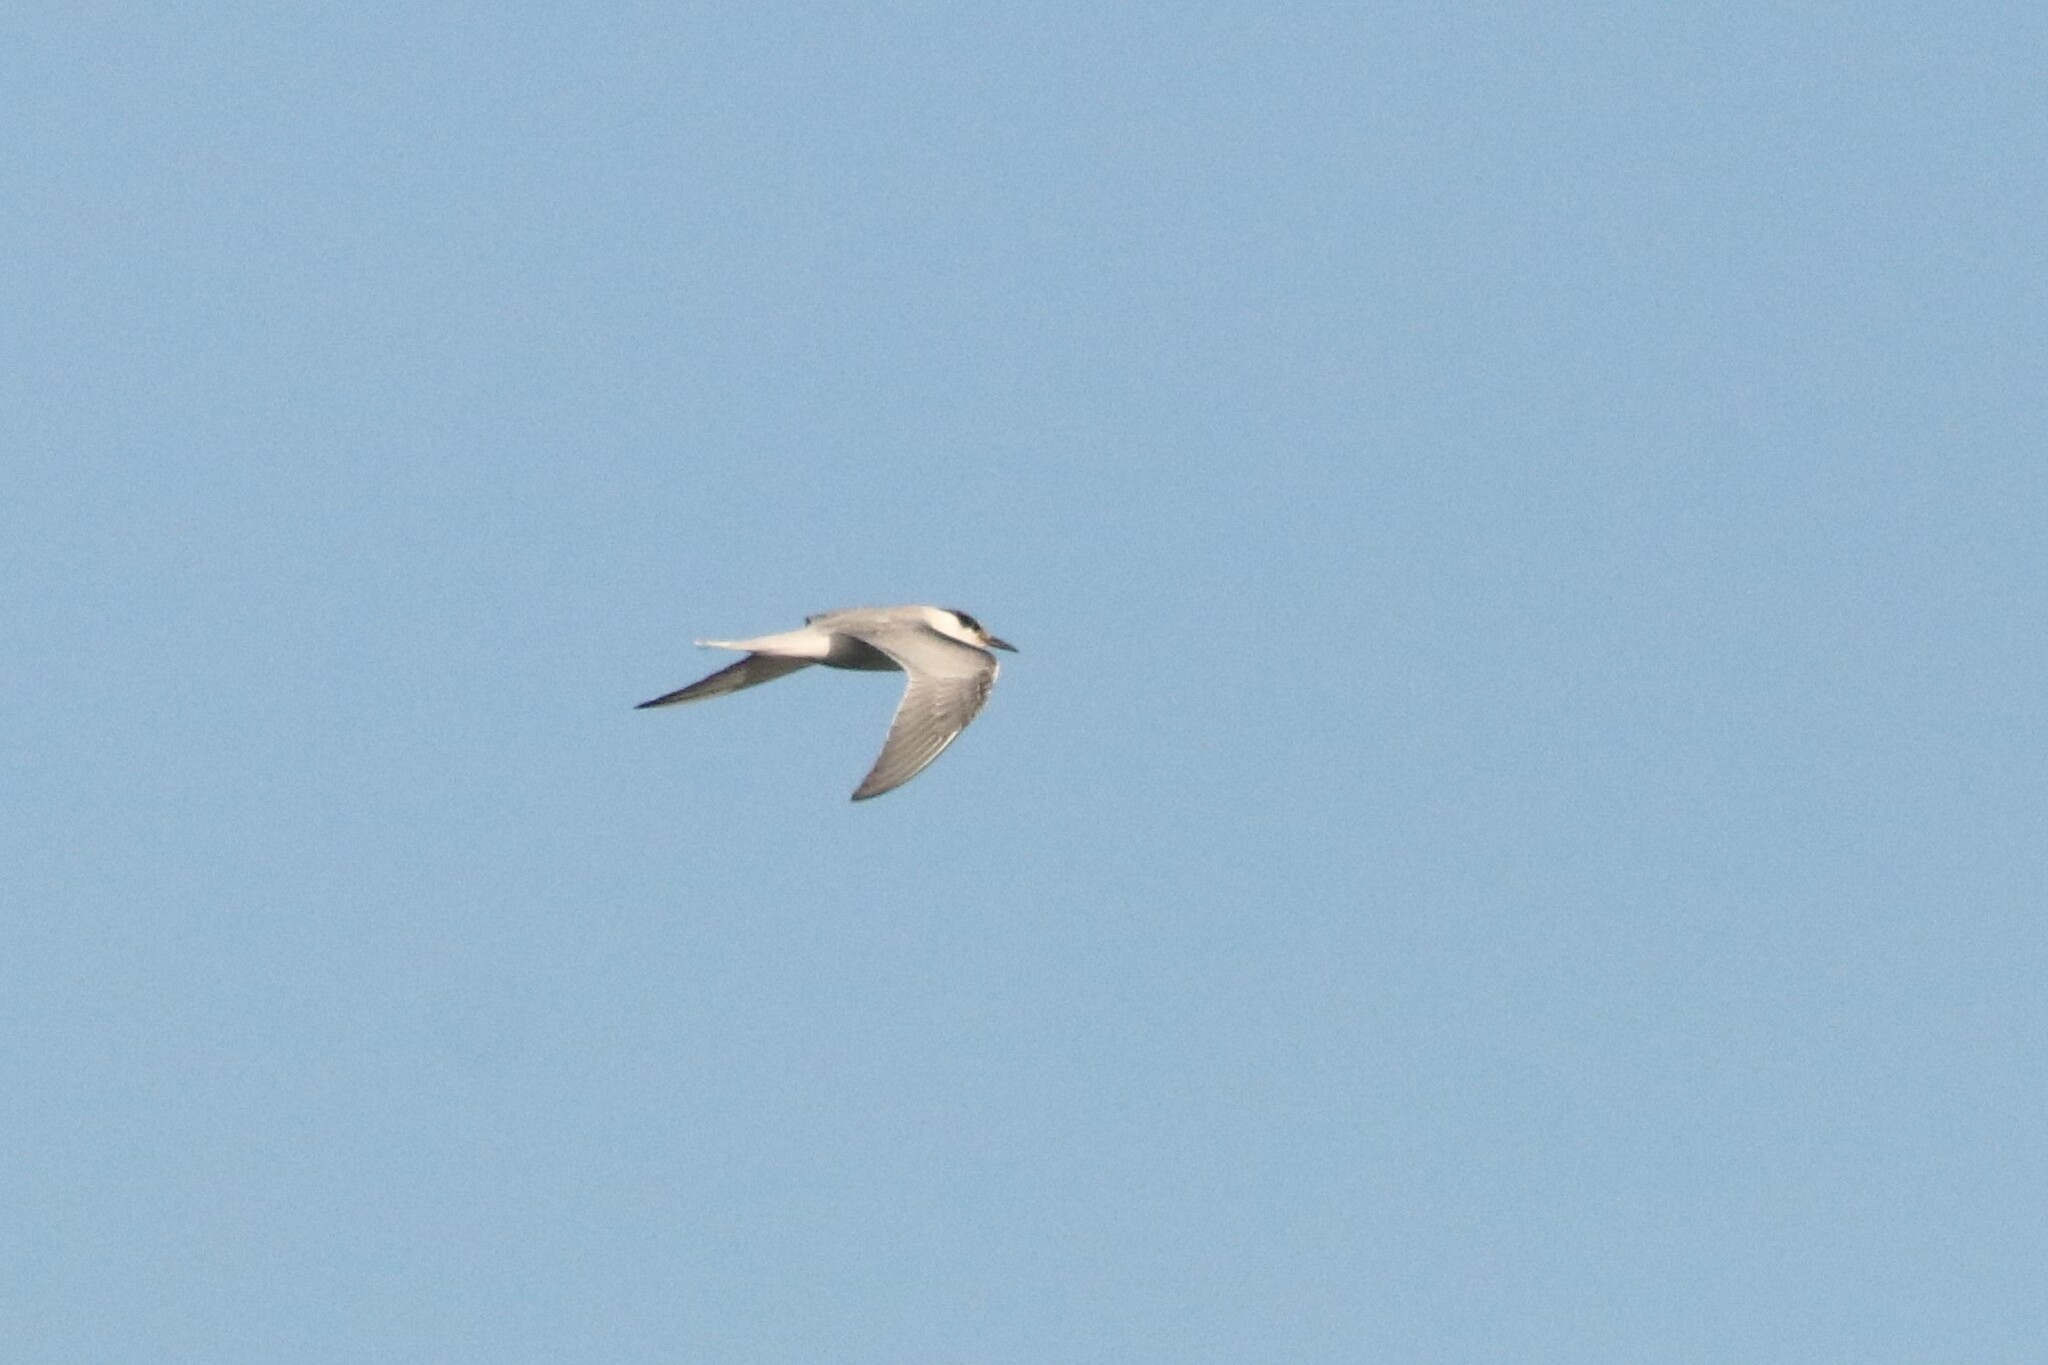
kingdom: Animalia
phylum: Chordata
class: Aves
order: Charadriiformes
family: Laridae
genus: Sterna
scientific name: Sterna hirundo
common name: Common tern
